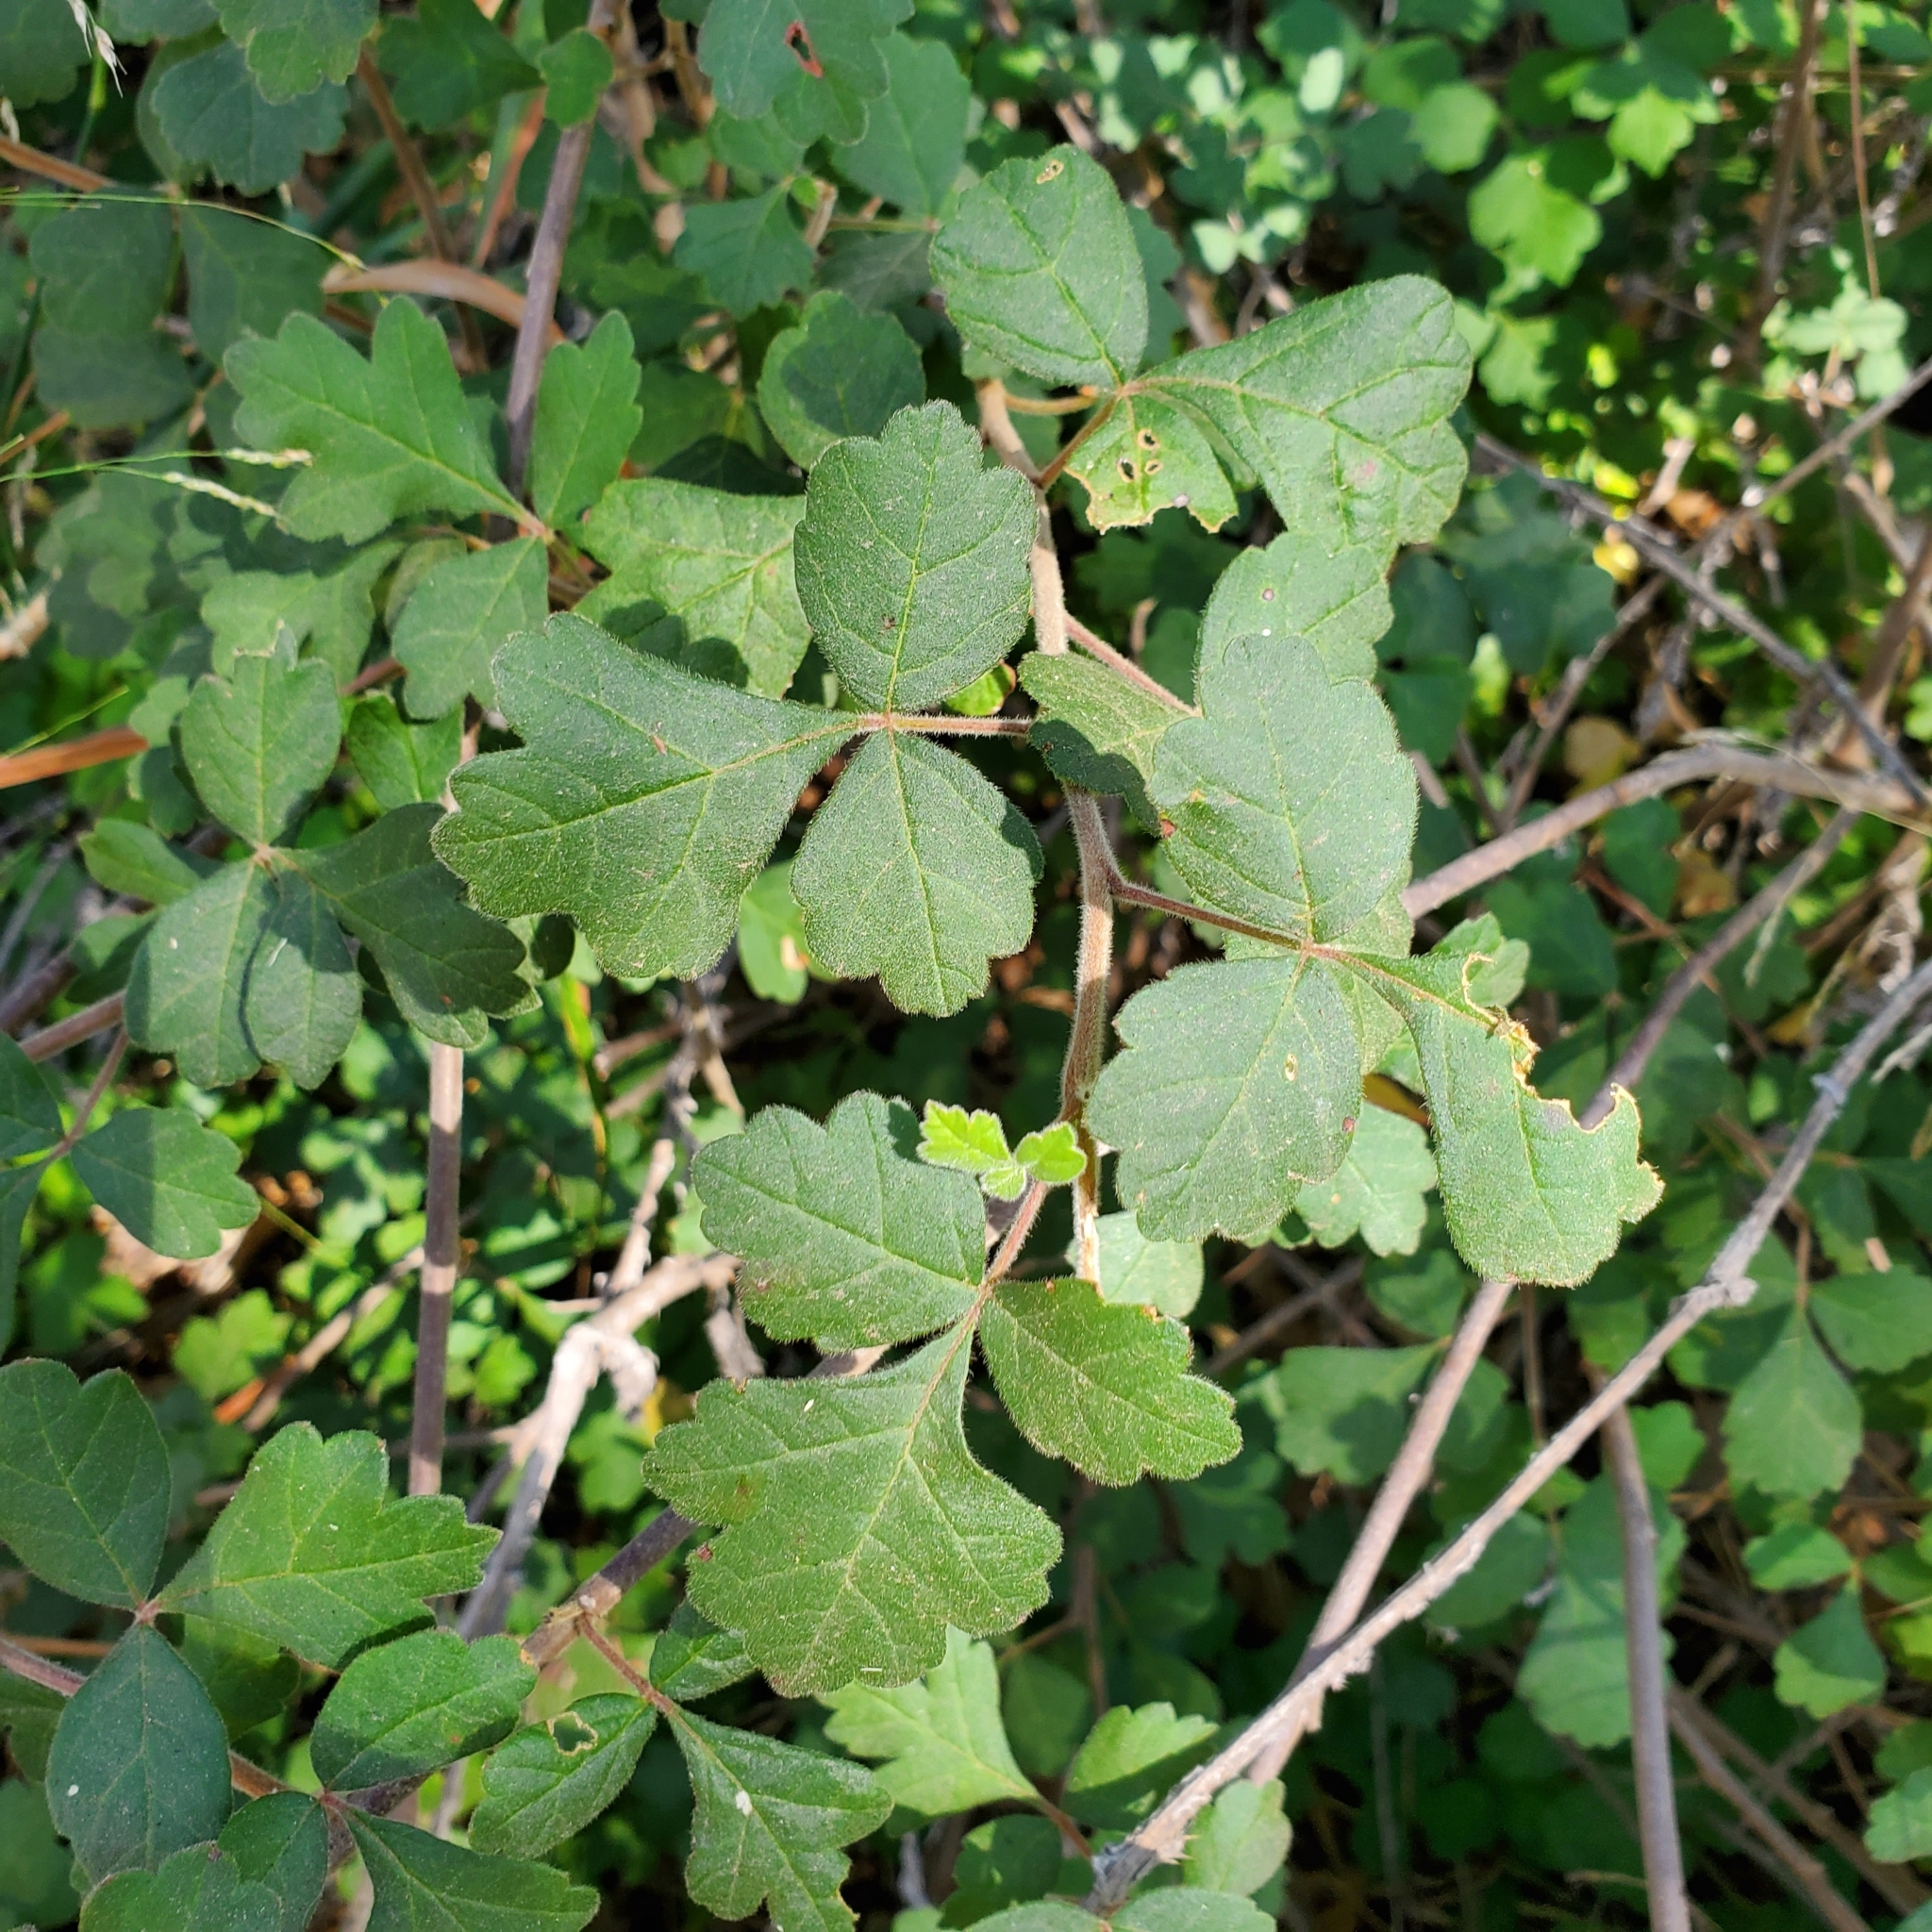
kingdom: Plantae
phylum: Tracheophyta
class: Magnoliopsida
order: Sapindales
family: Anacardiaceae
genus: Rhus
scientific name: Rhus aromatica
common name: Aromatic sumac
